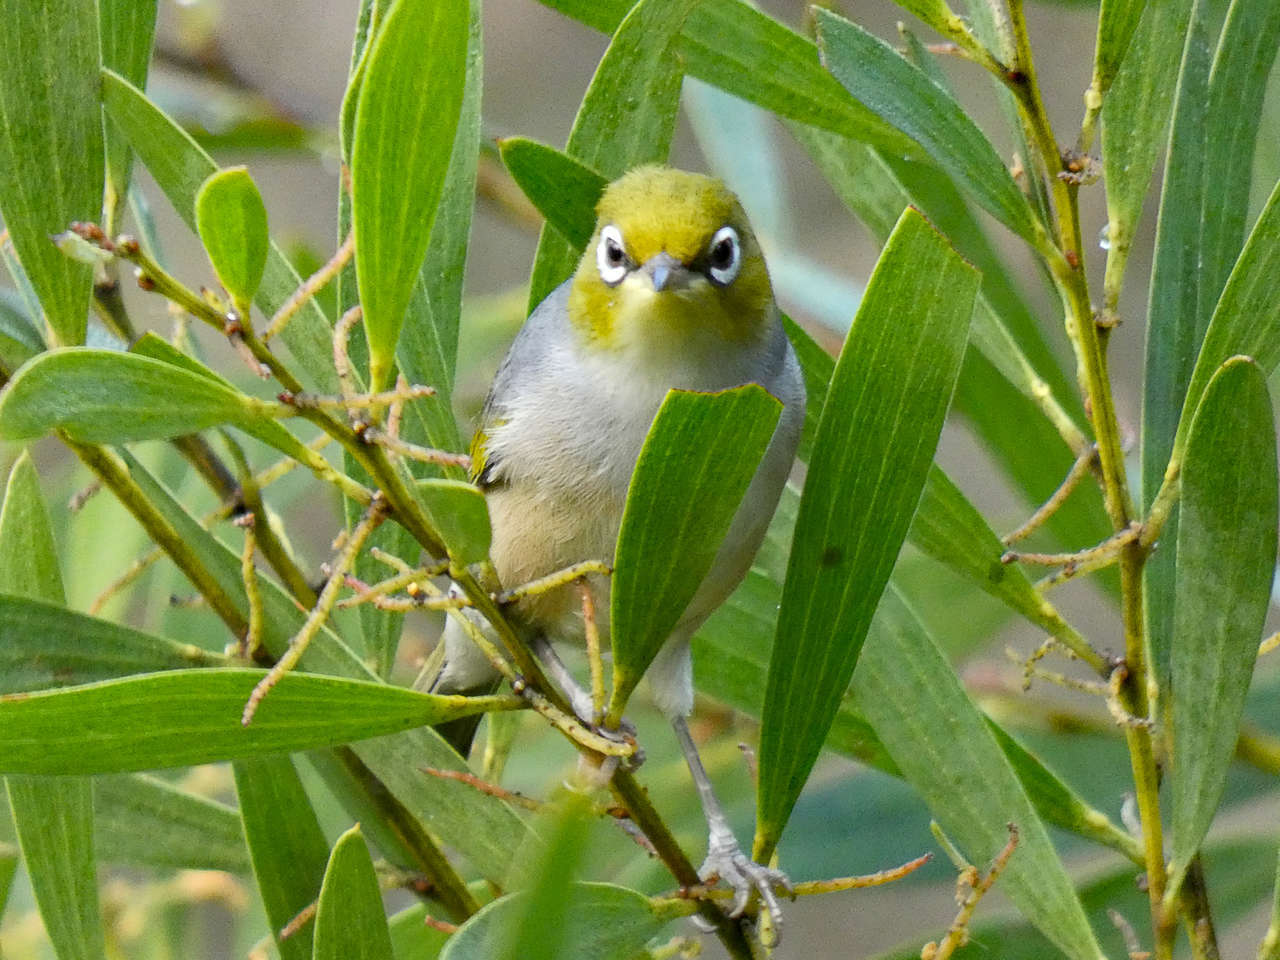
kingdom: Animalia
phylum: Chordata
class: Aves
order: Passeriformes
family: Zosteropidae
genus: Zosterops
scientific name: Zosterops lateralis
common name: Silvereye
